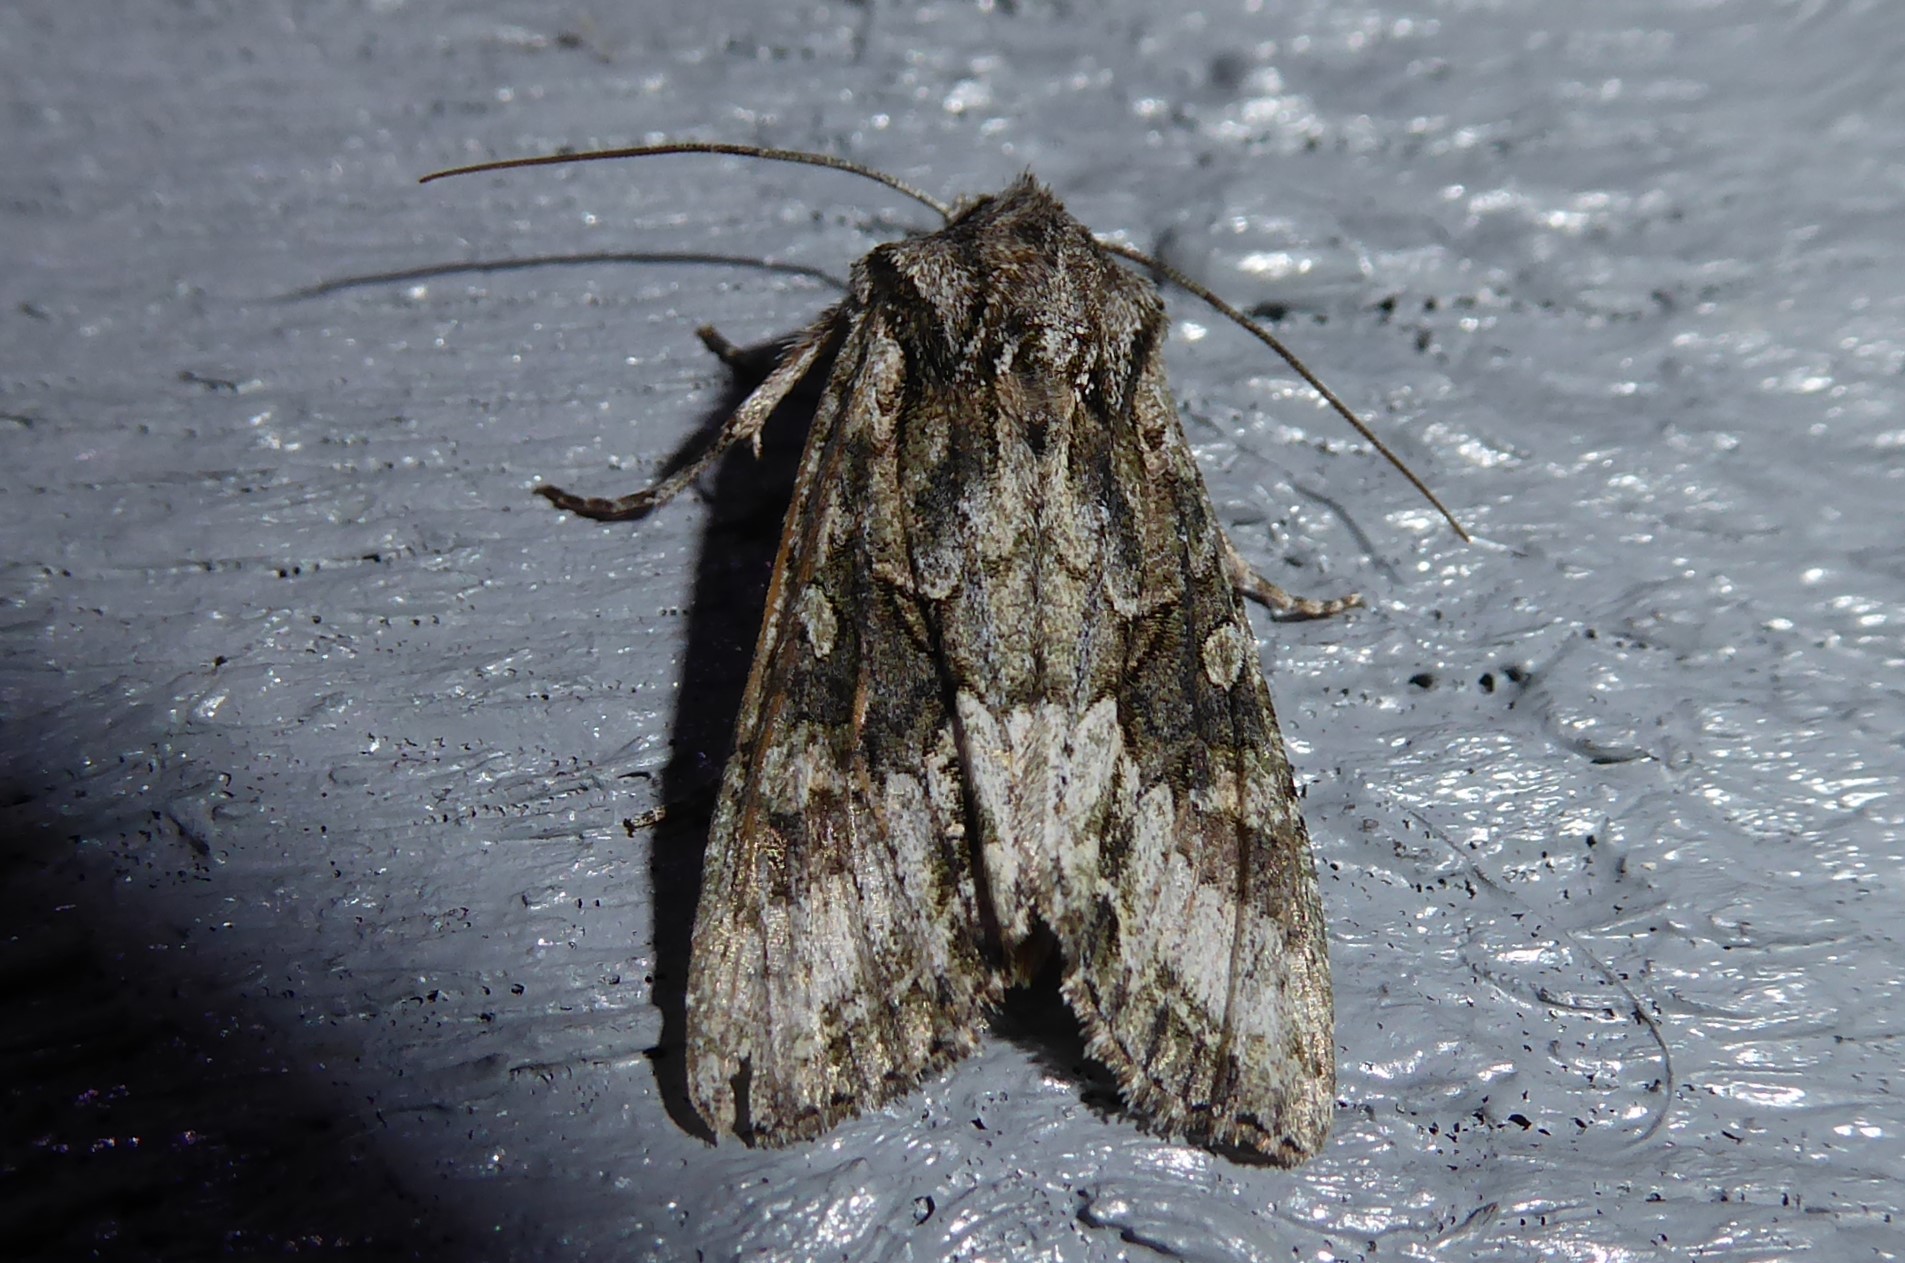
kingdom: Animalia
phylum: Arthropoda
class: Insecta
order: Lepidoptera
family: Noctuidae
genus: Ichneutica
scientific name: Ichneutica mutans
